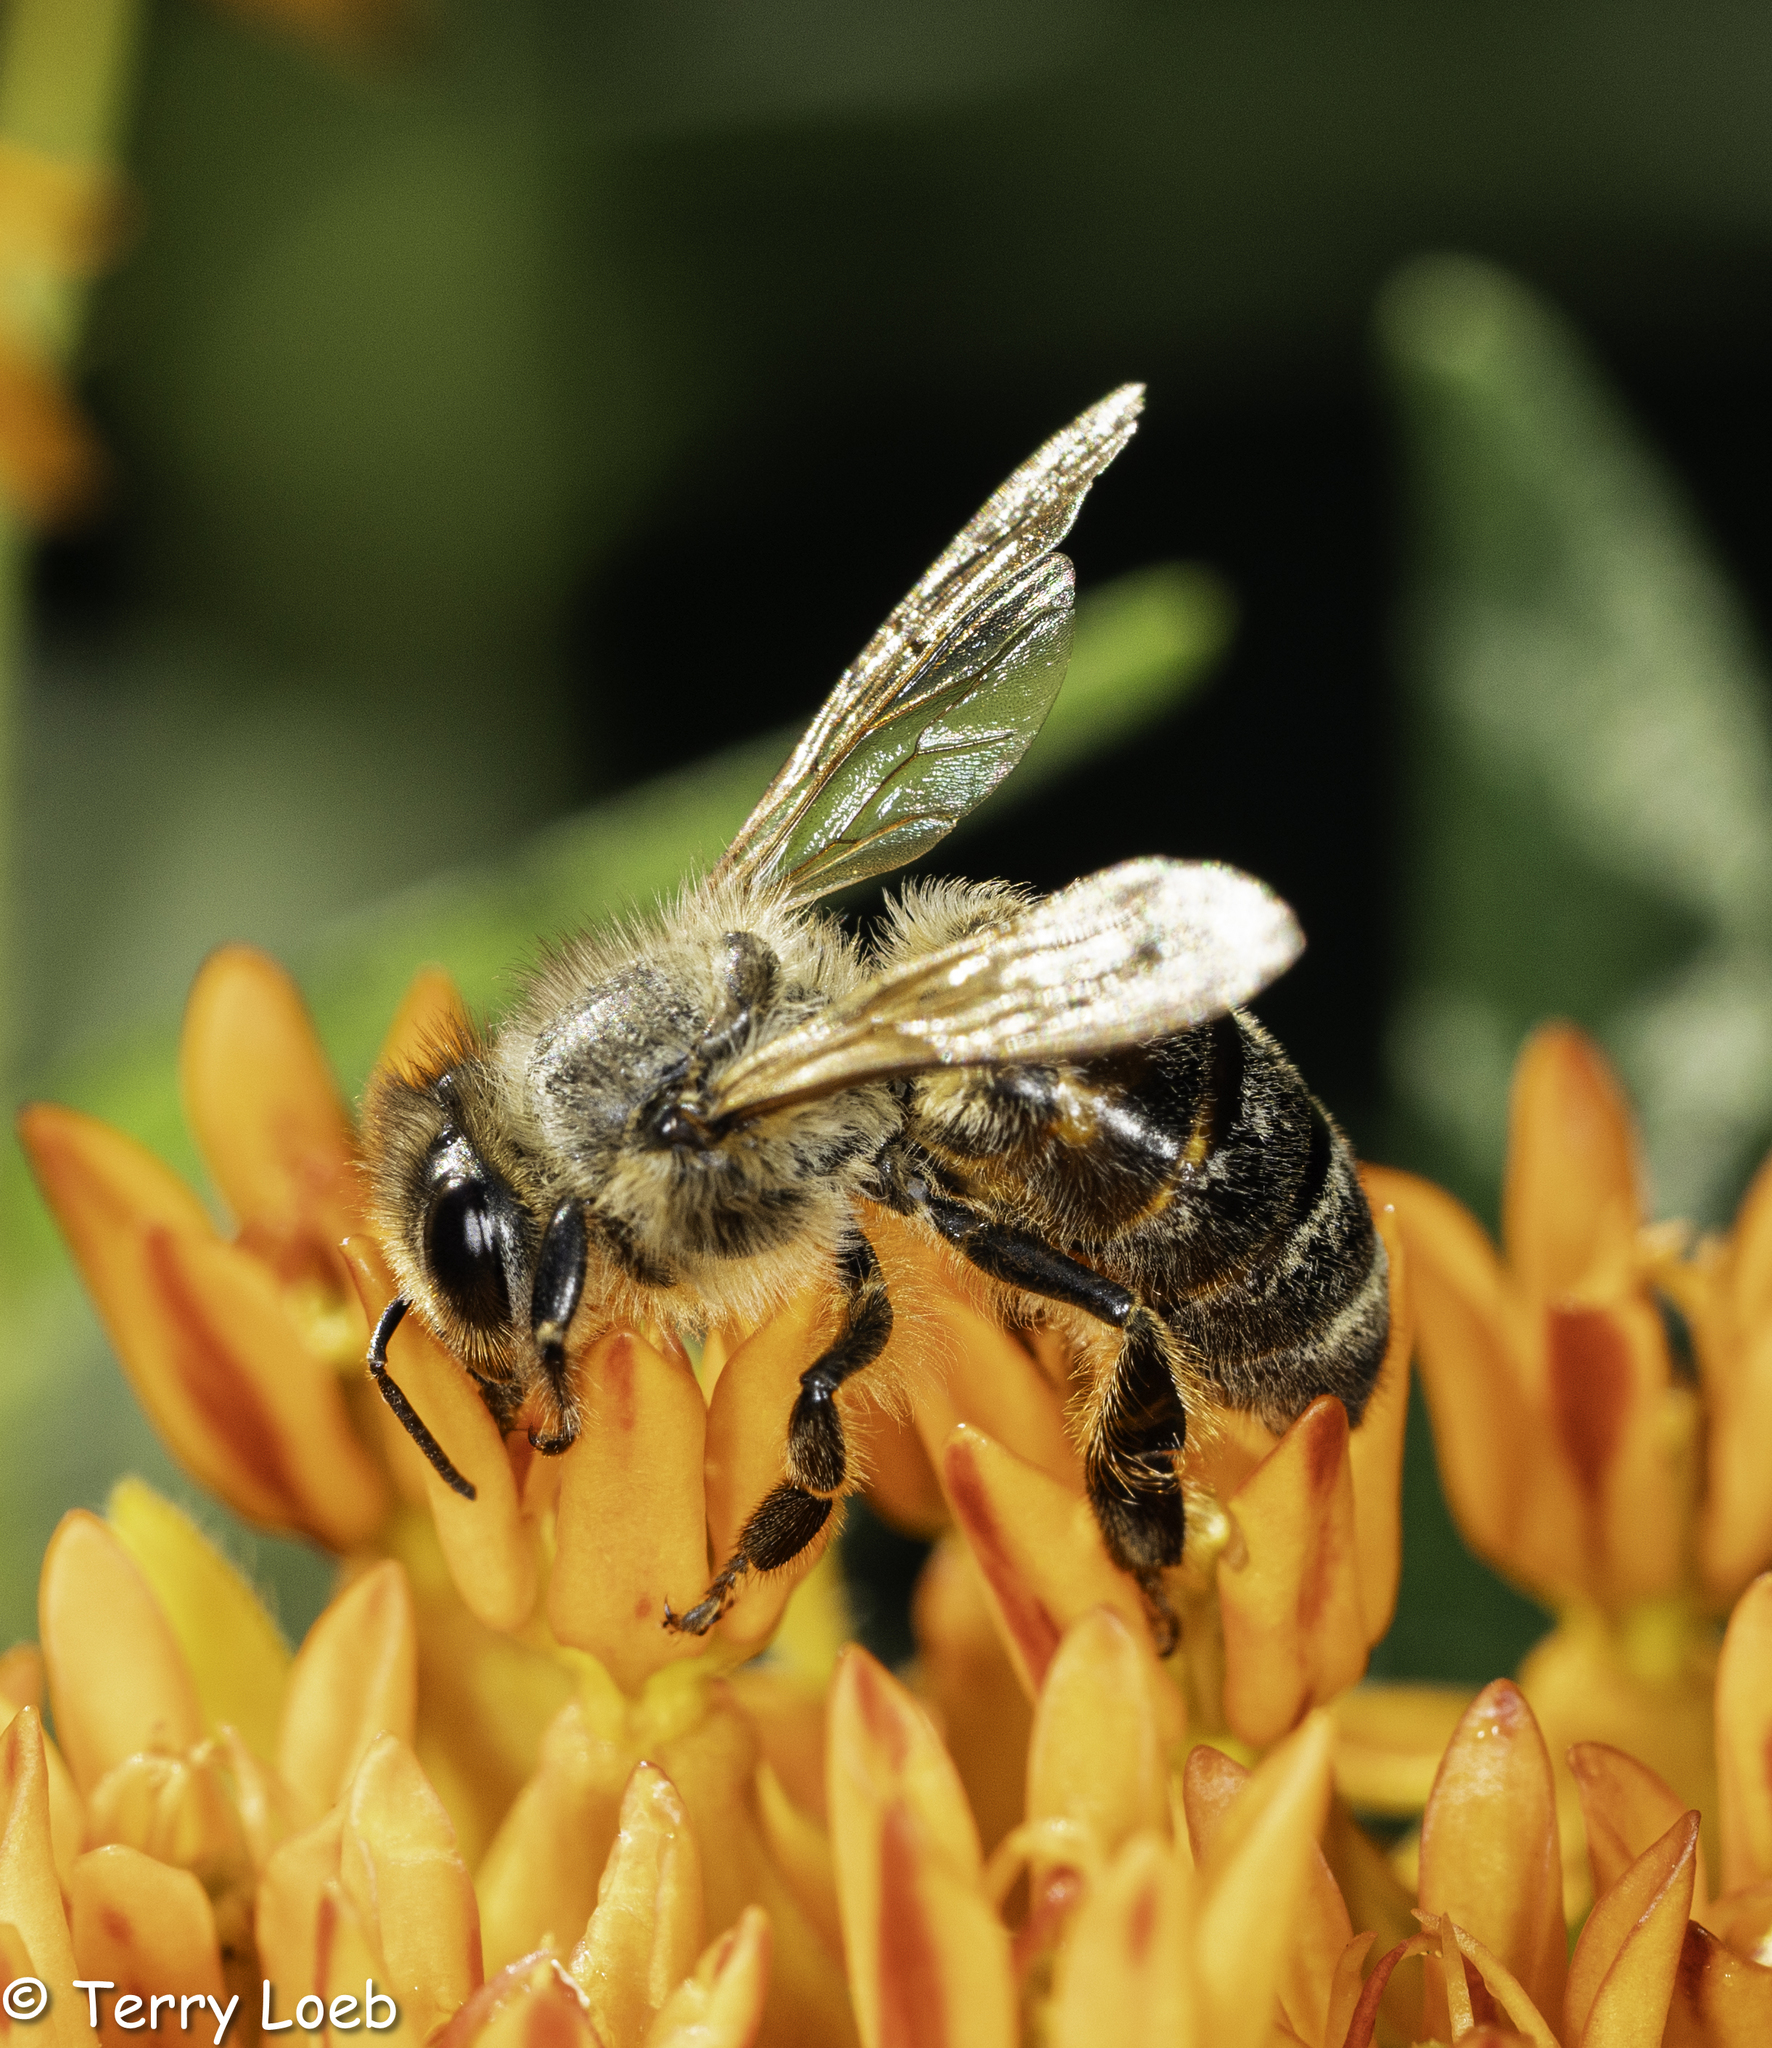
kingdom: Animalia
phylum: Arthropoda
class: Insecta
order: Hymenoptera
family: Apidae
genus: Apis
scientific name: Apis mellifera
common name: Honey bee
